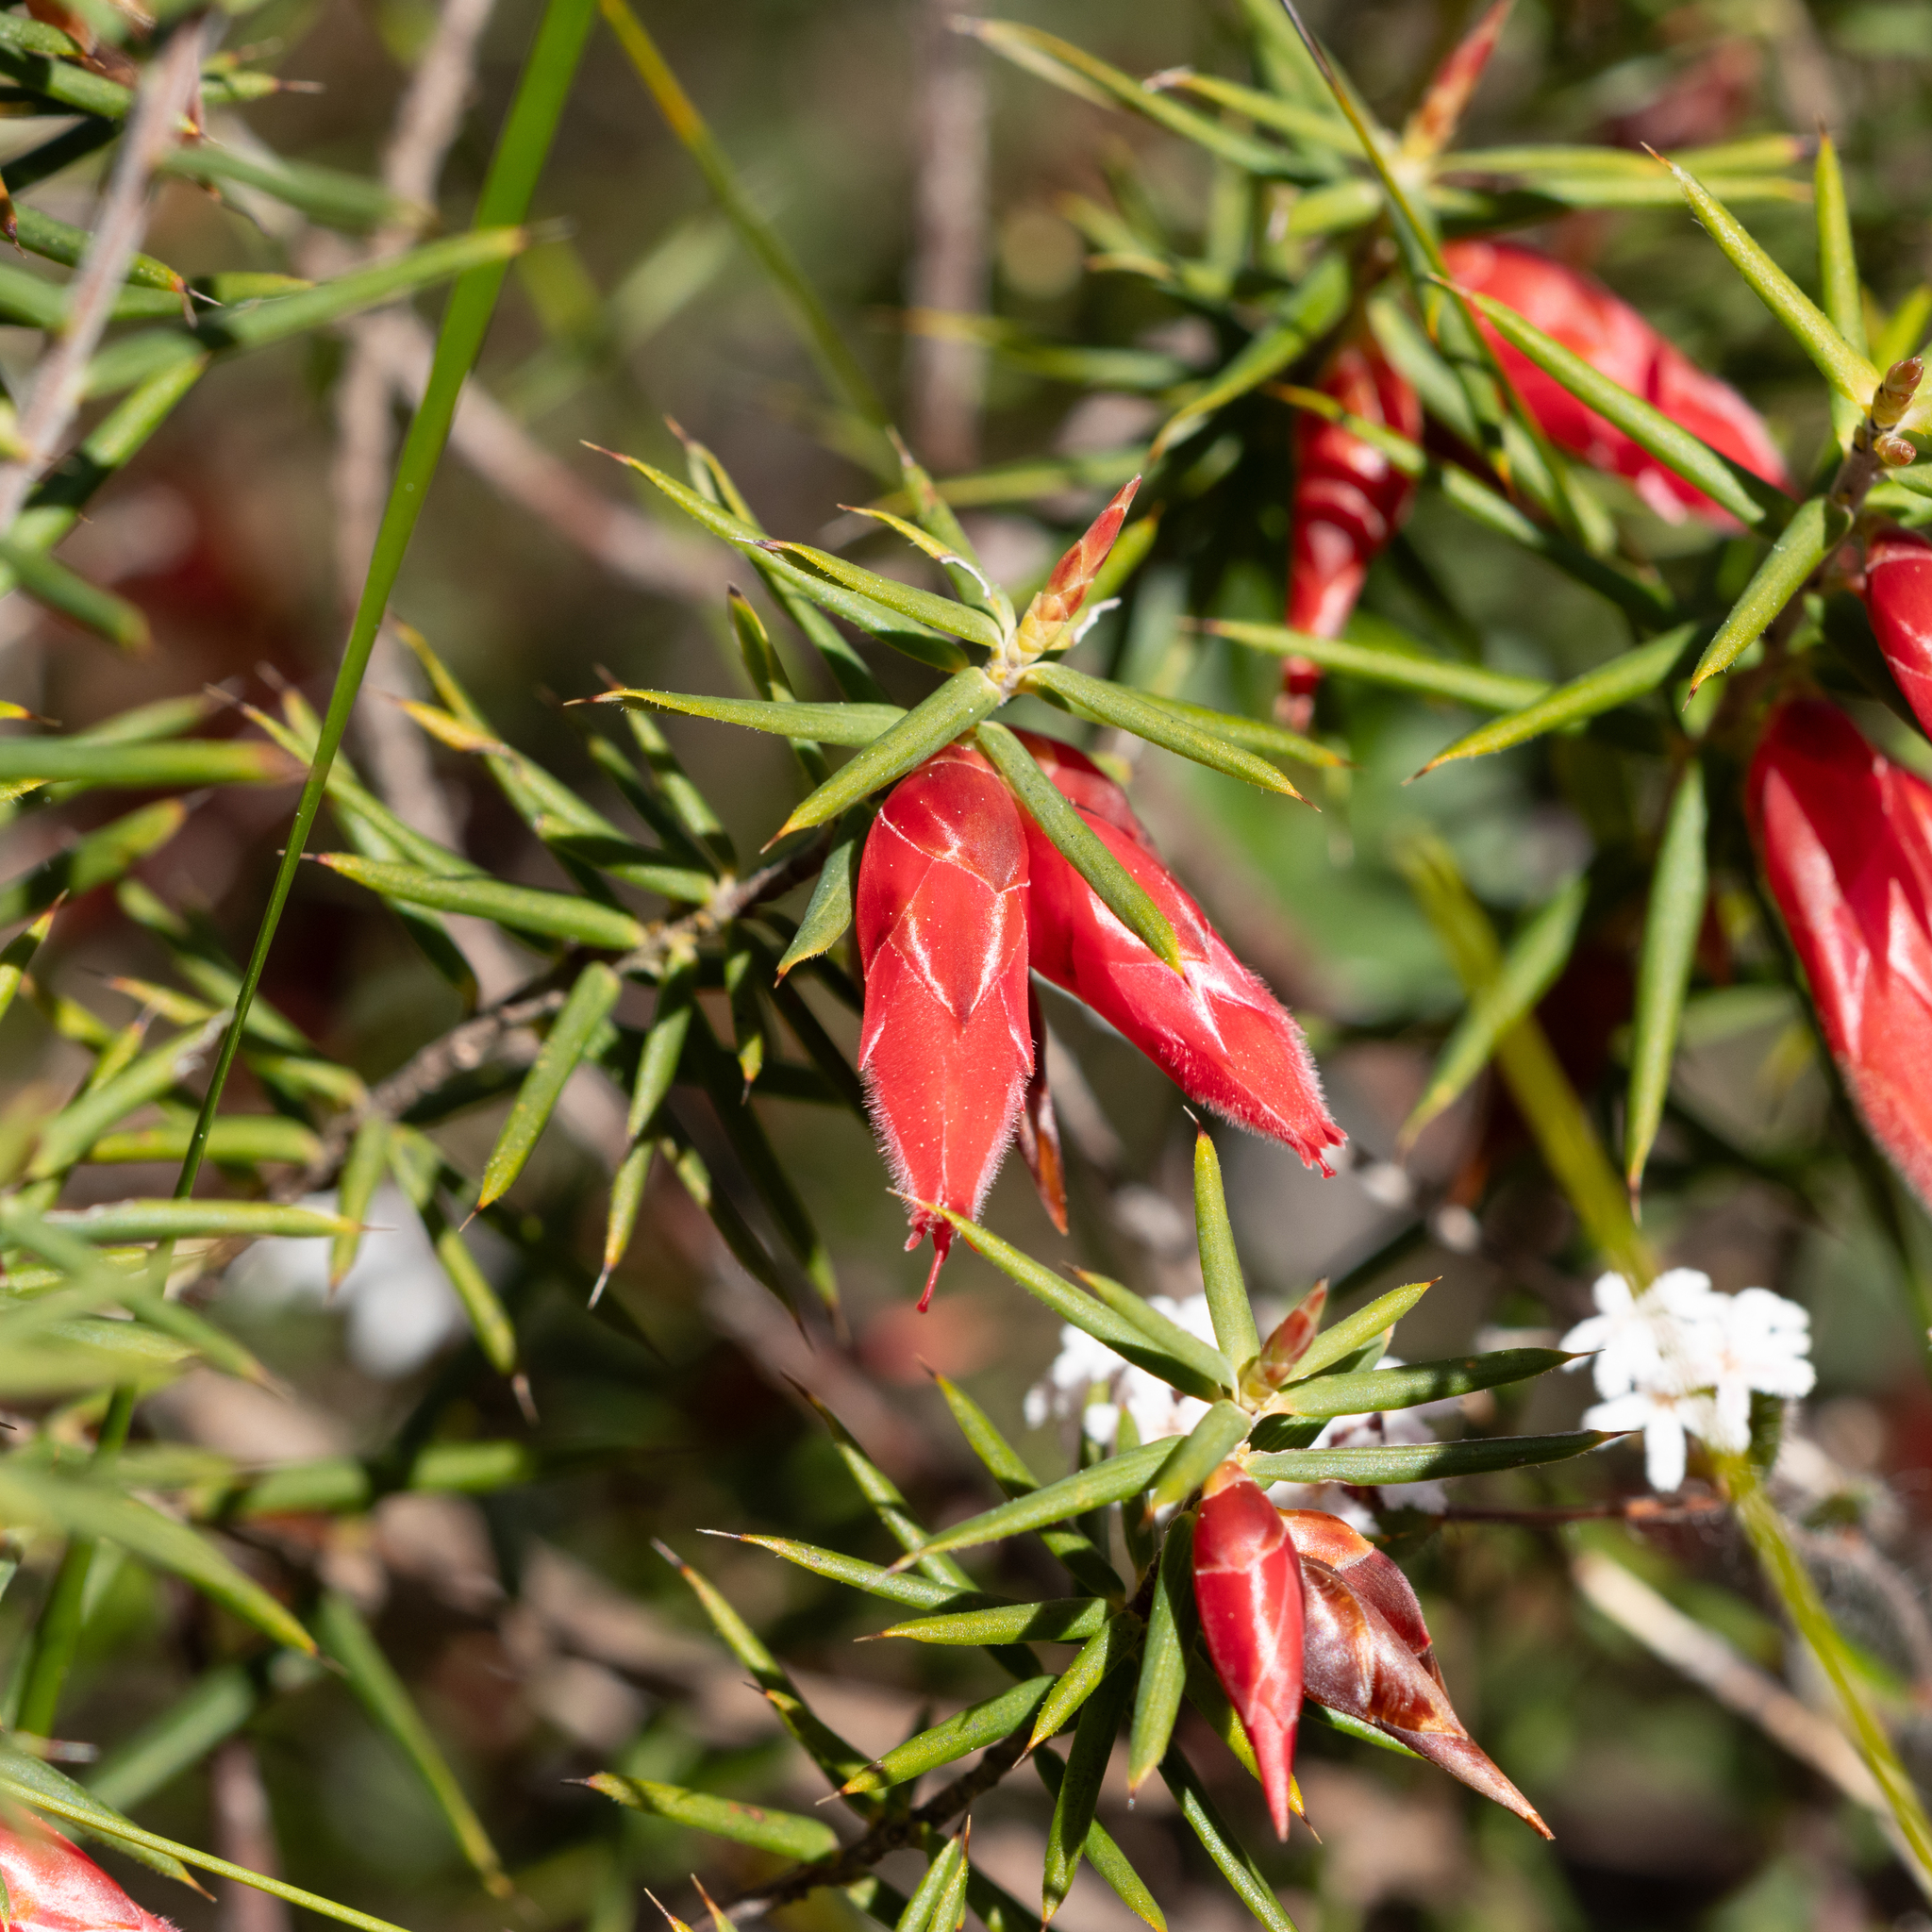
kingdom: Plantae
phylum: Tracheophyta
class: Magnoliopsida
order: Ericales
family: Ericaceae
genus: Stenanthera
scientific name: Stenanthera conostephioides
